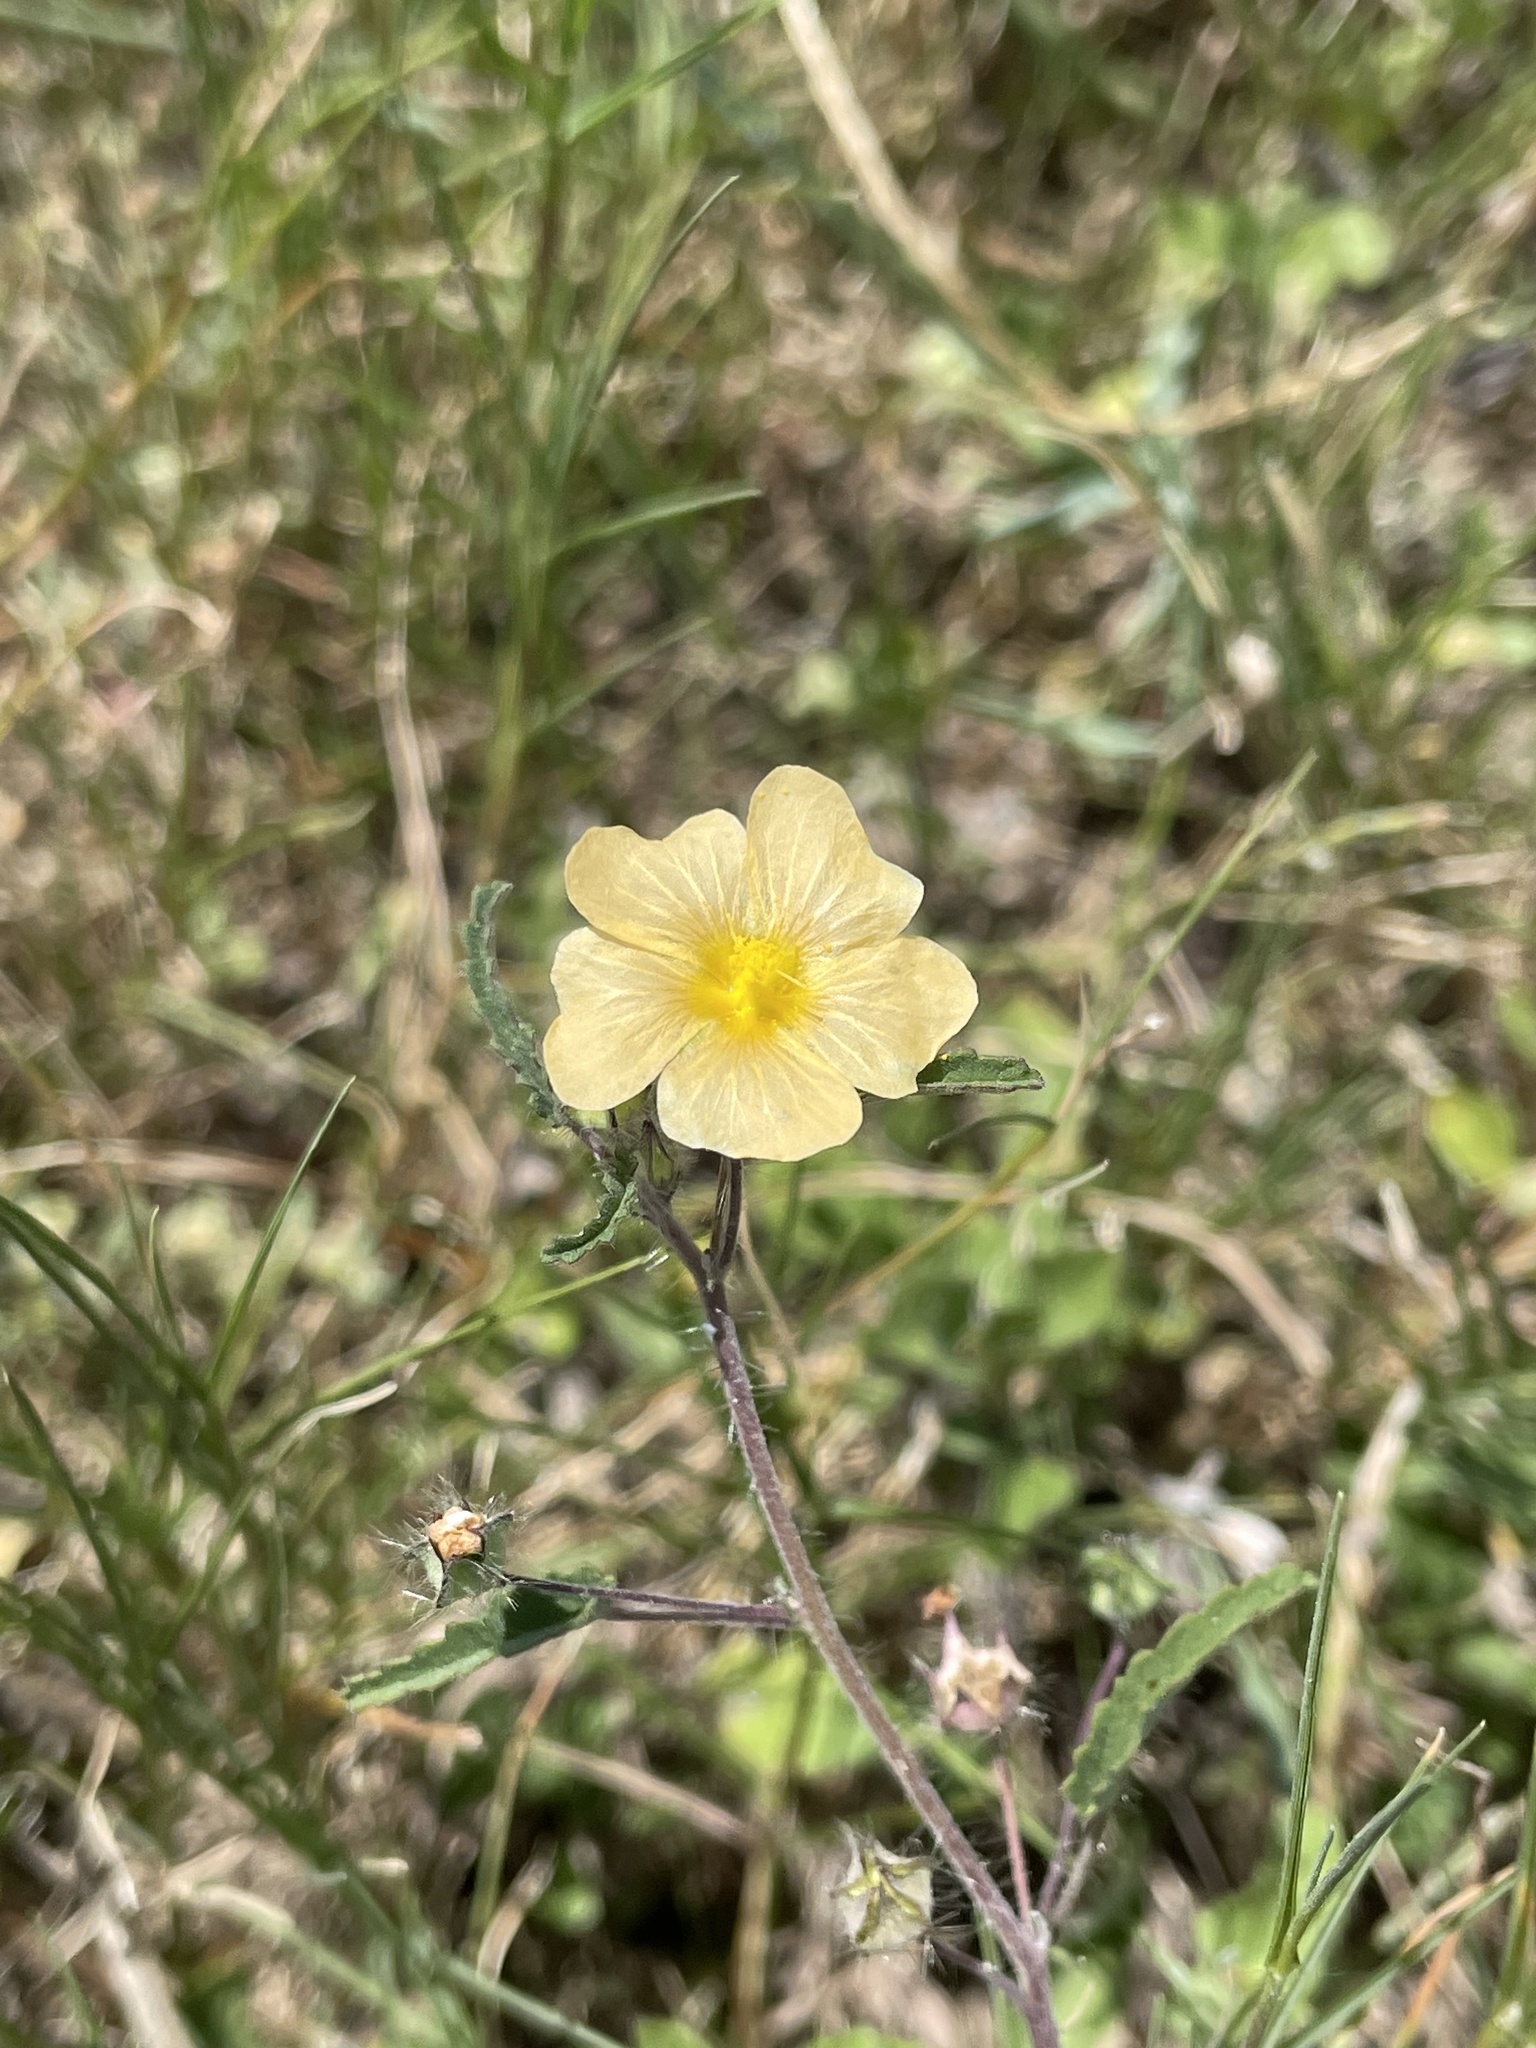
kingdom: Plantae
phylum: Tracheophyta
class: Magnoliopsida
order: Malvales
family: Malvaceae
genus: Sida
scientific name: Sida abutilifolia
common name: Spreading fanpetals
